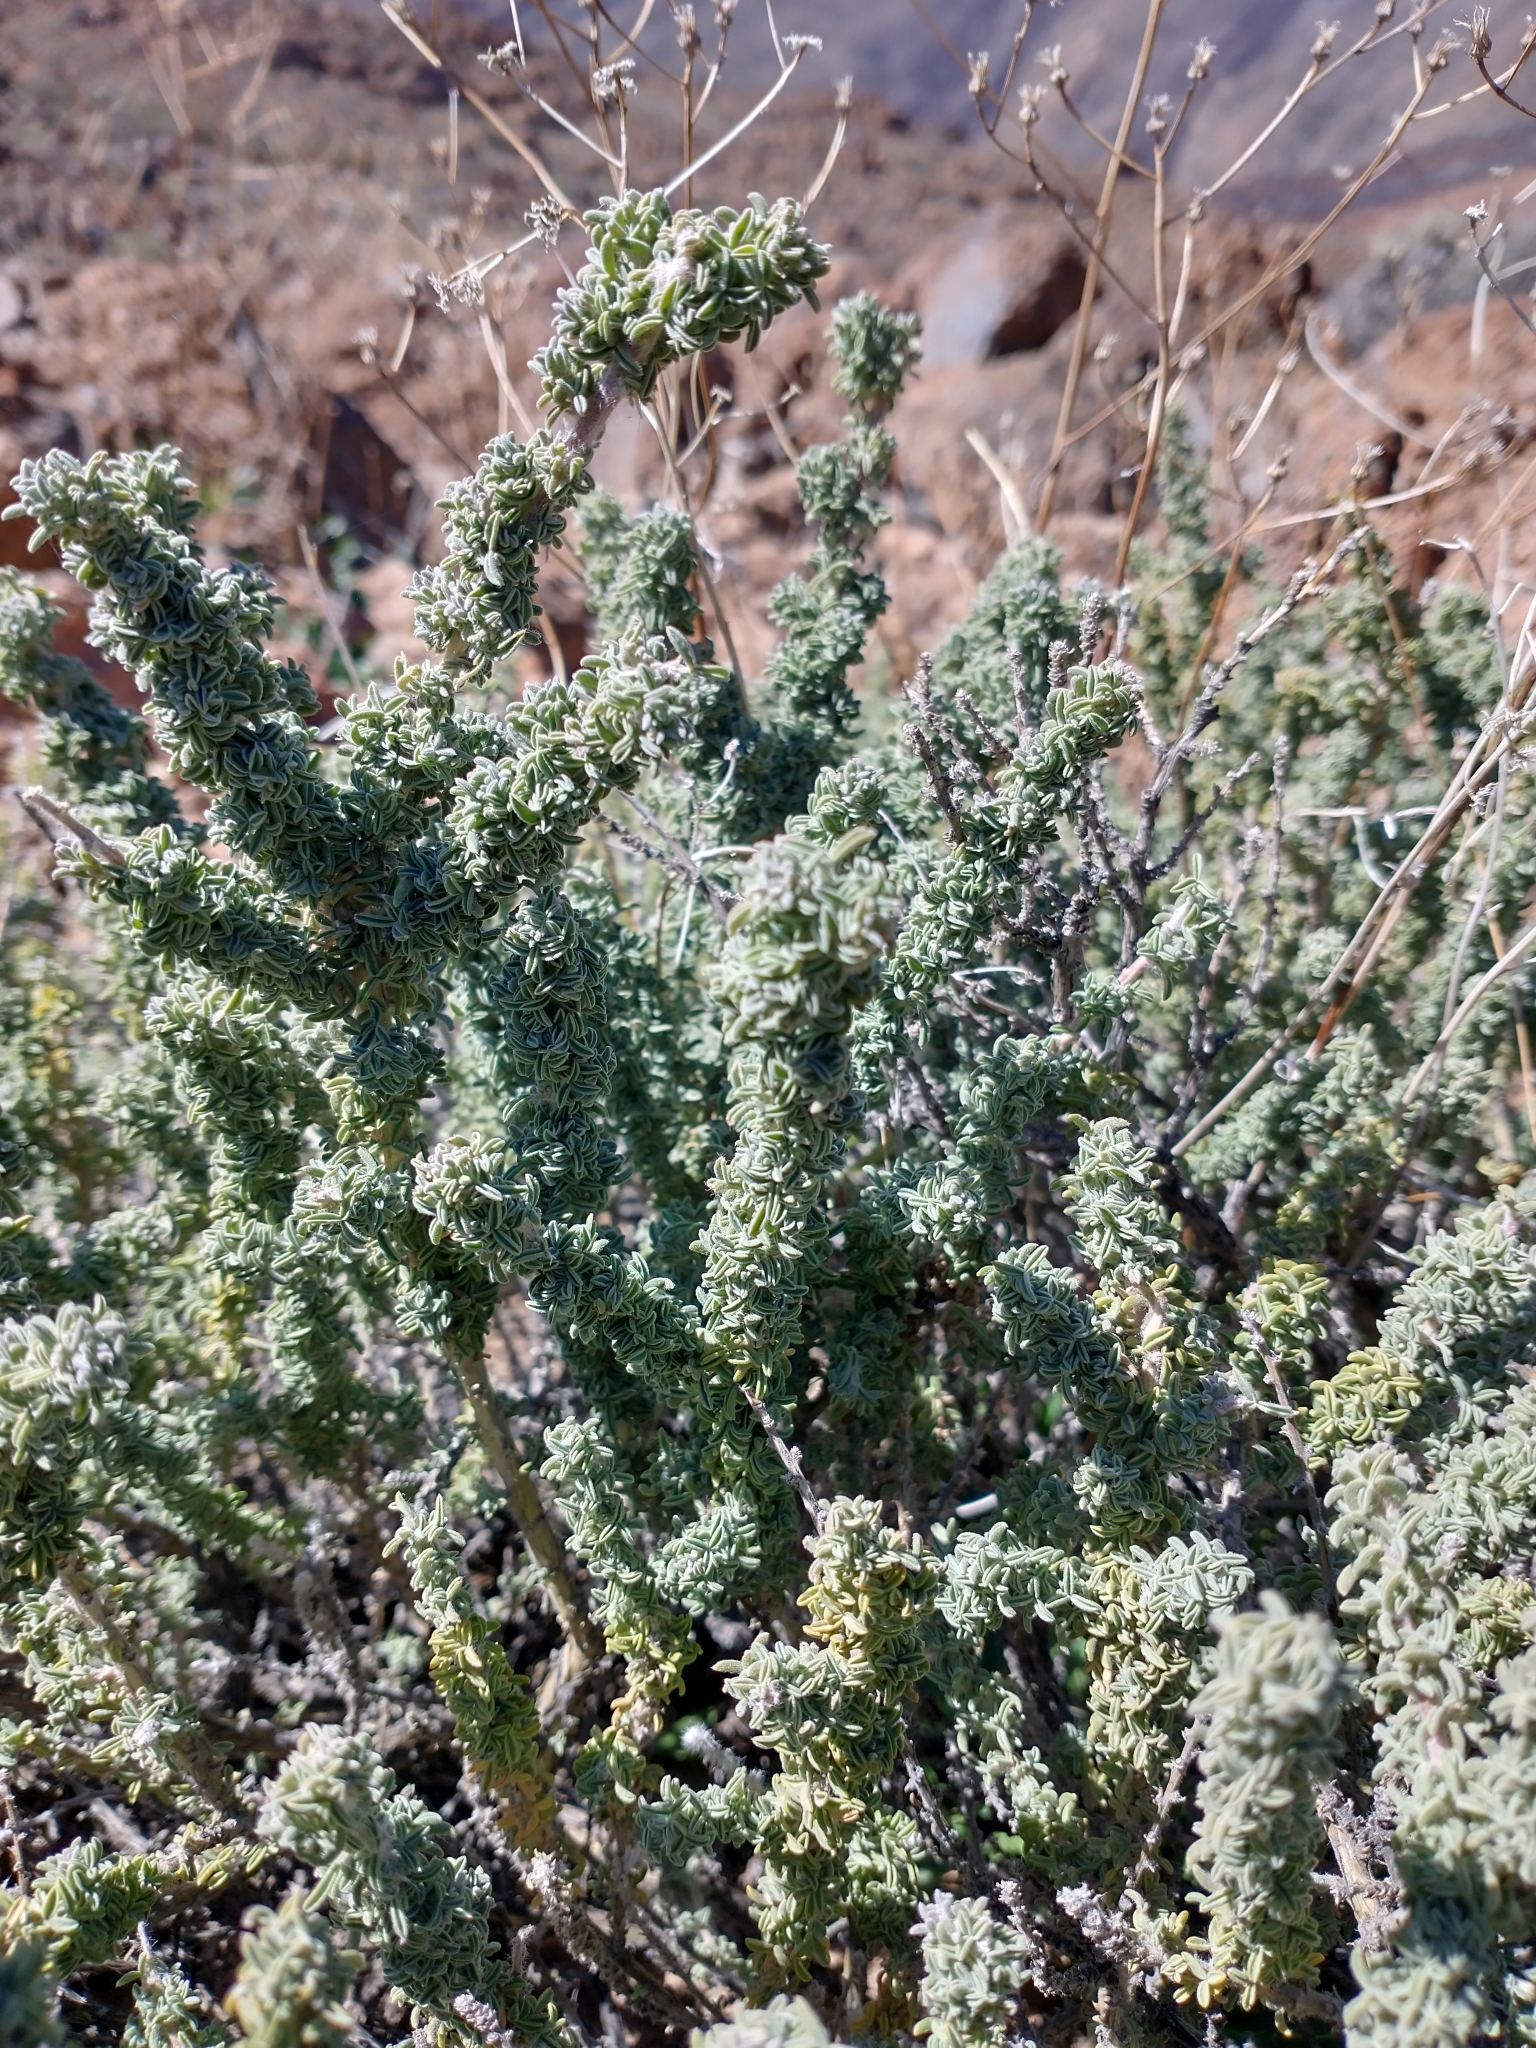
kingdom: Plantae
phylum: Tracheophyta
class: Magnoliopsida
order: Fabales
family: Fabaceae
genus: Adenocarpus
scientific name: Adenocarpus viscosus
